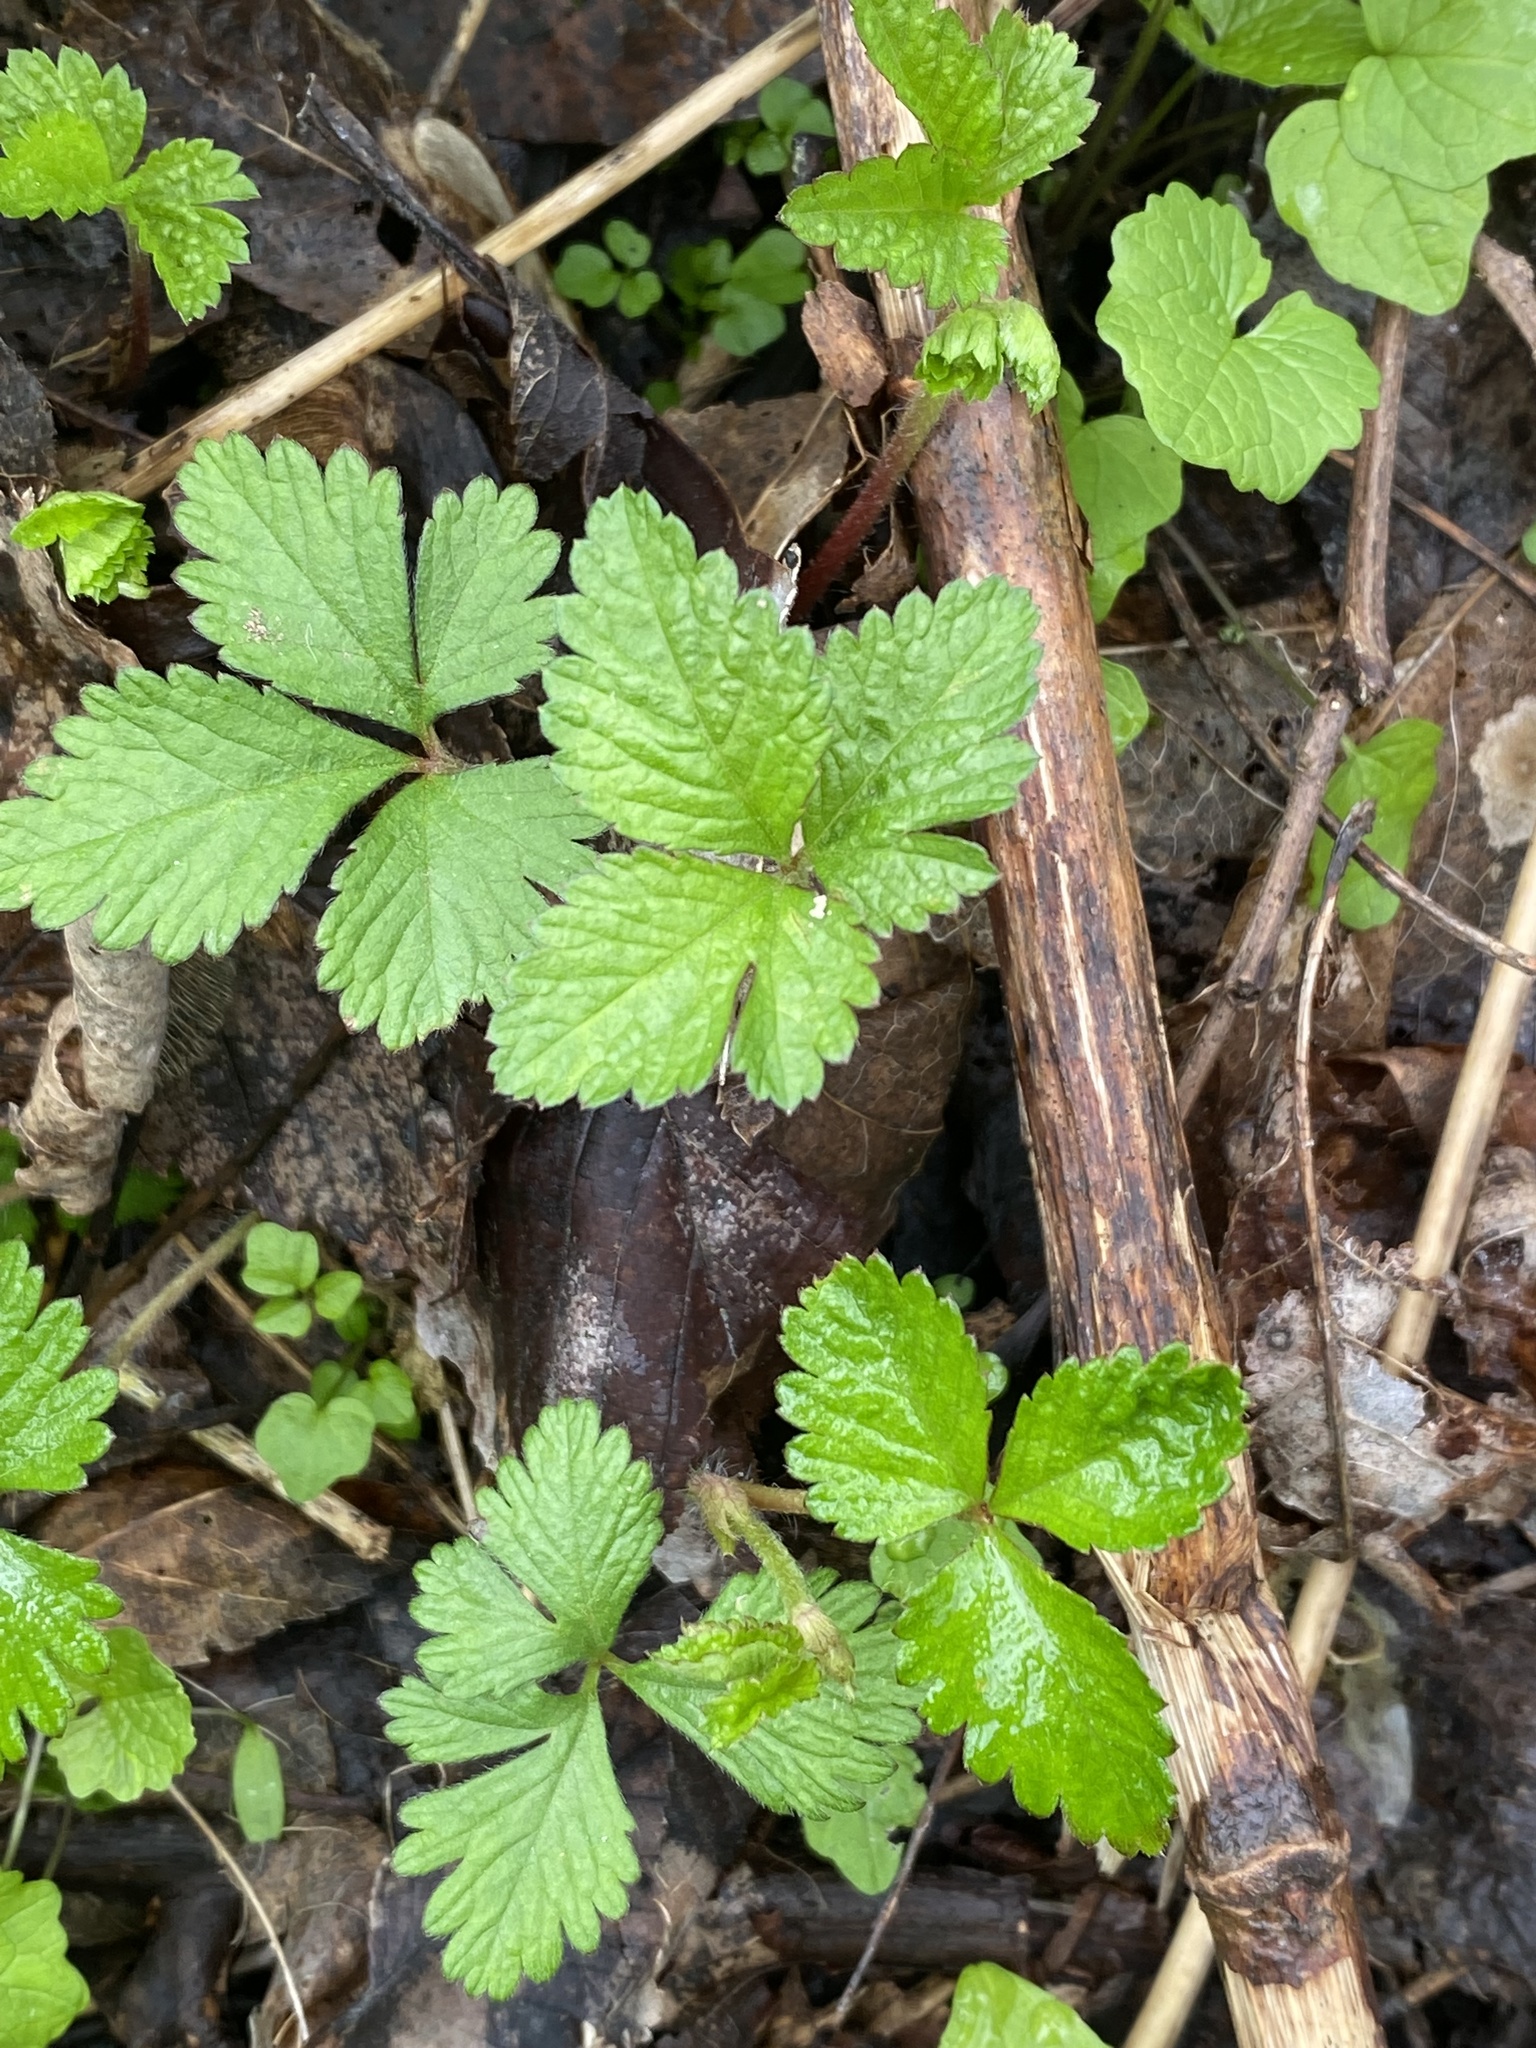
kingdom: Plantae
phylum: Tracheophyta
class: Magnoliopsida
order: Rosales
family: Rosaceae
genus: Potentilla
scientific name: Potentilla indica
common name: Yellow-flowered strawberry
